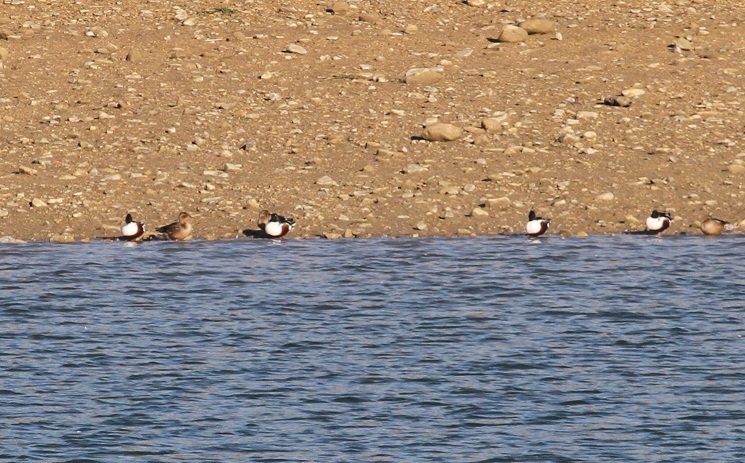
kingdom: Animalia
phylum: Chordata
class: Aves
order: Anseriformes
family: Anatidae
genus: Spatula
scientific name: Spatula clypeata
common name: Northern shoveler
